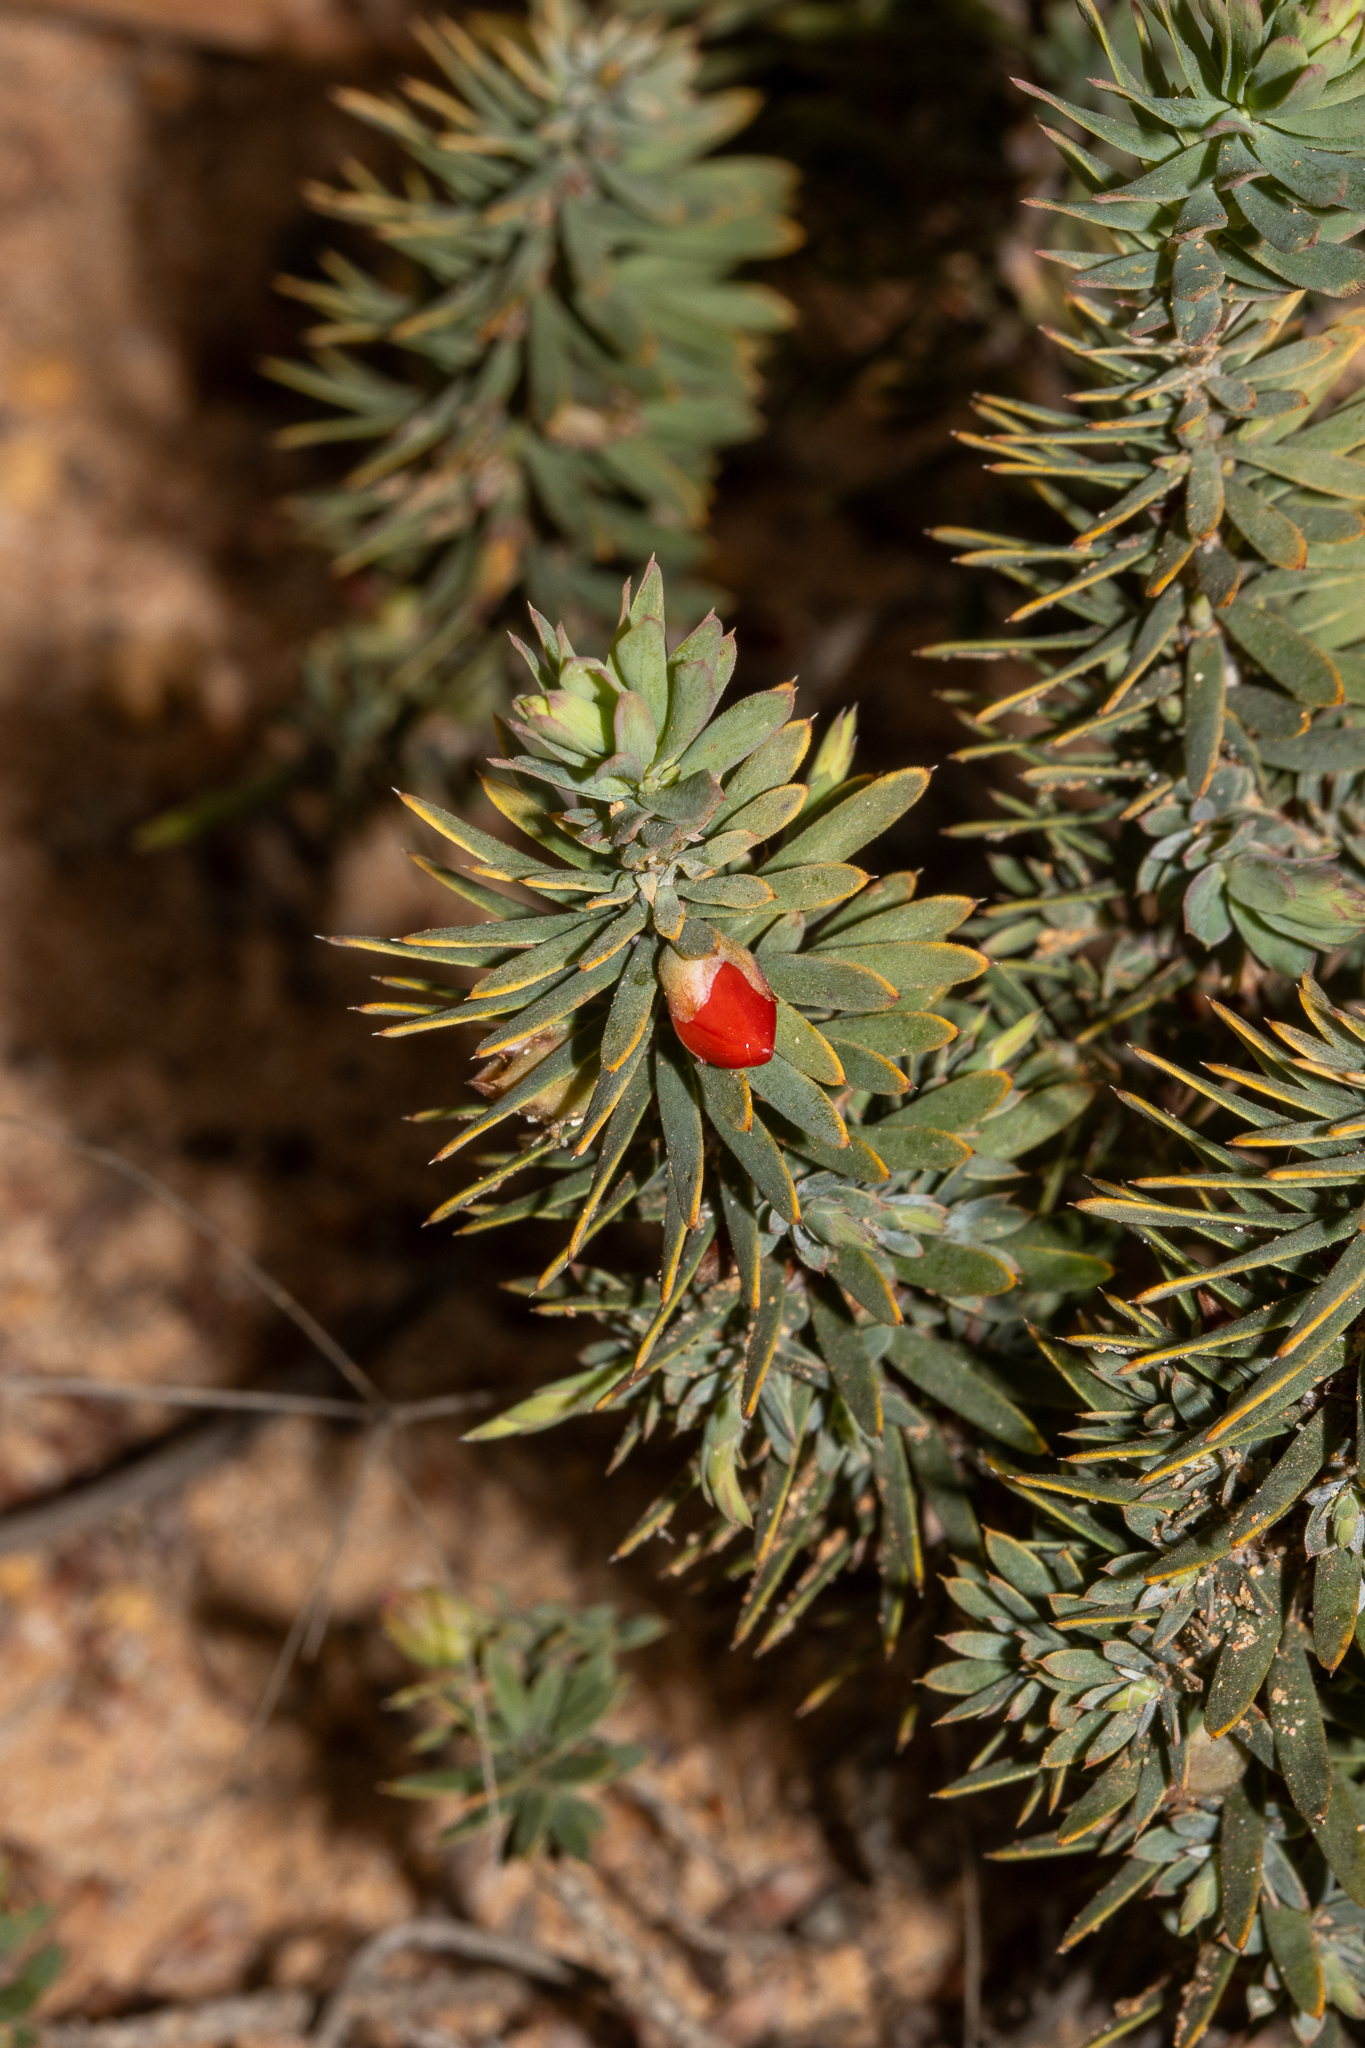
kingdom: Plantae
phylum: Tracheophyta
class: Magnoliopsida
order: Ericales
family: Ericaceae
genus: Styphelia
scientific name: Styphelia tortifolia
